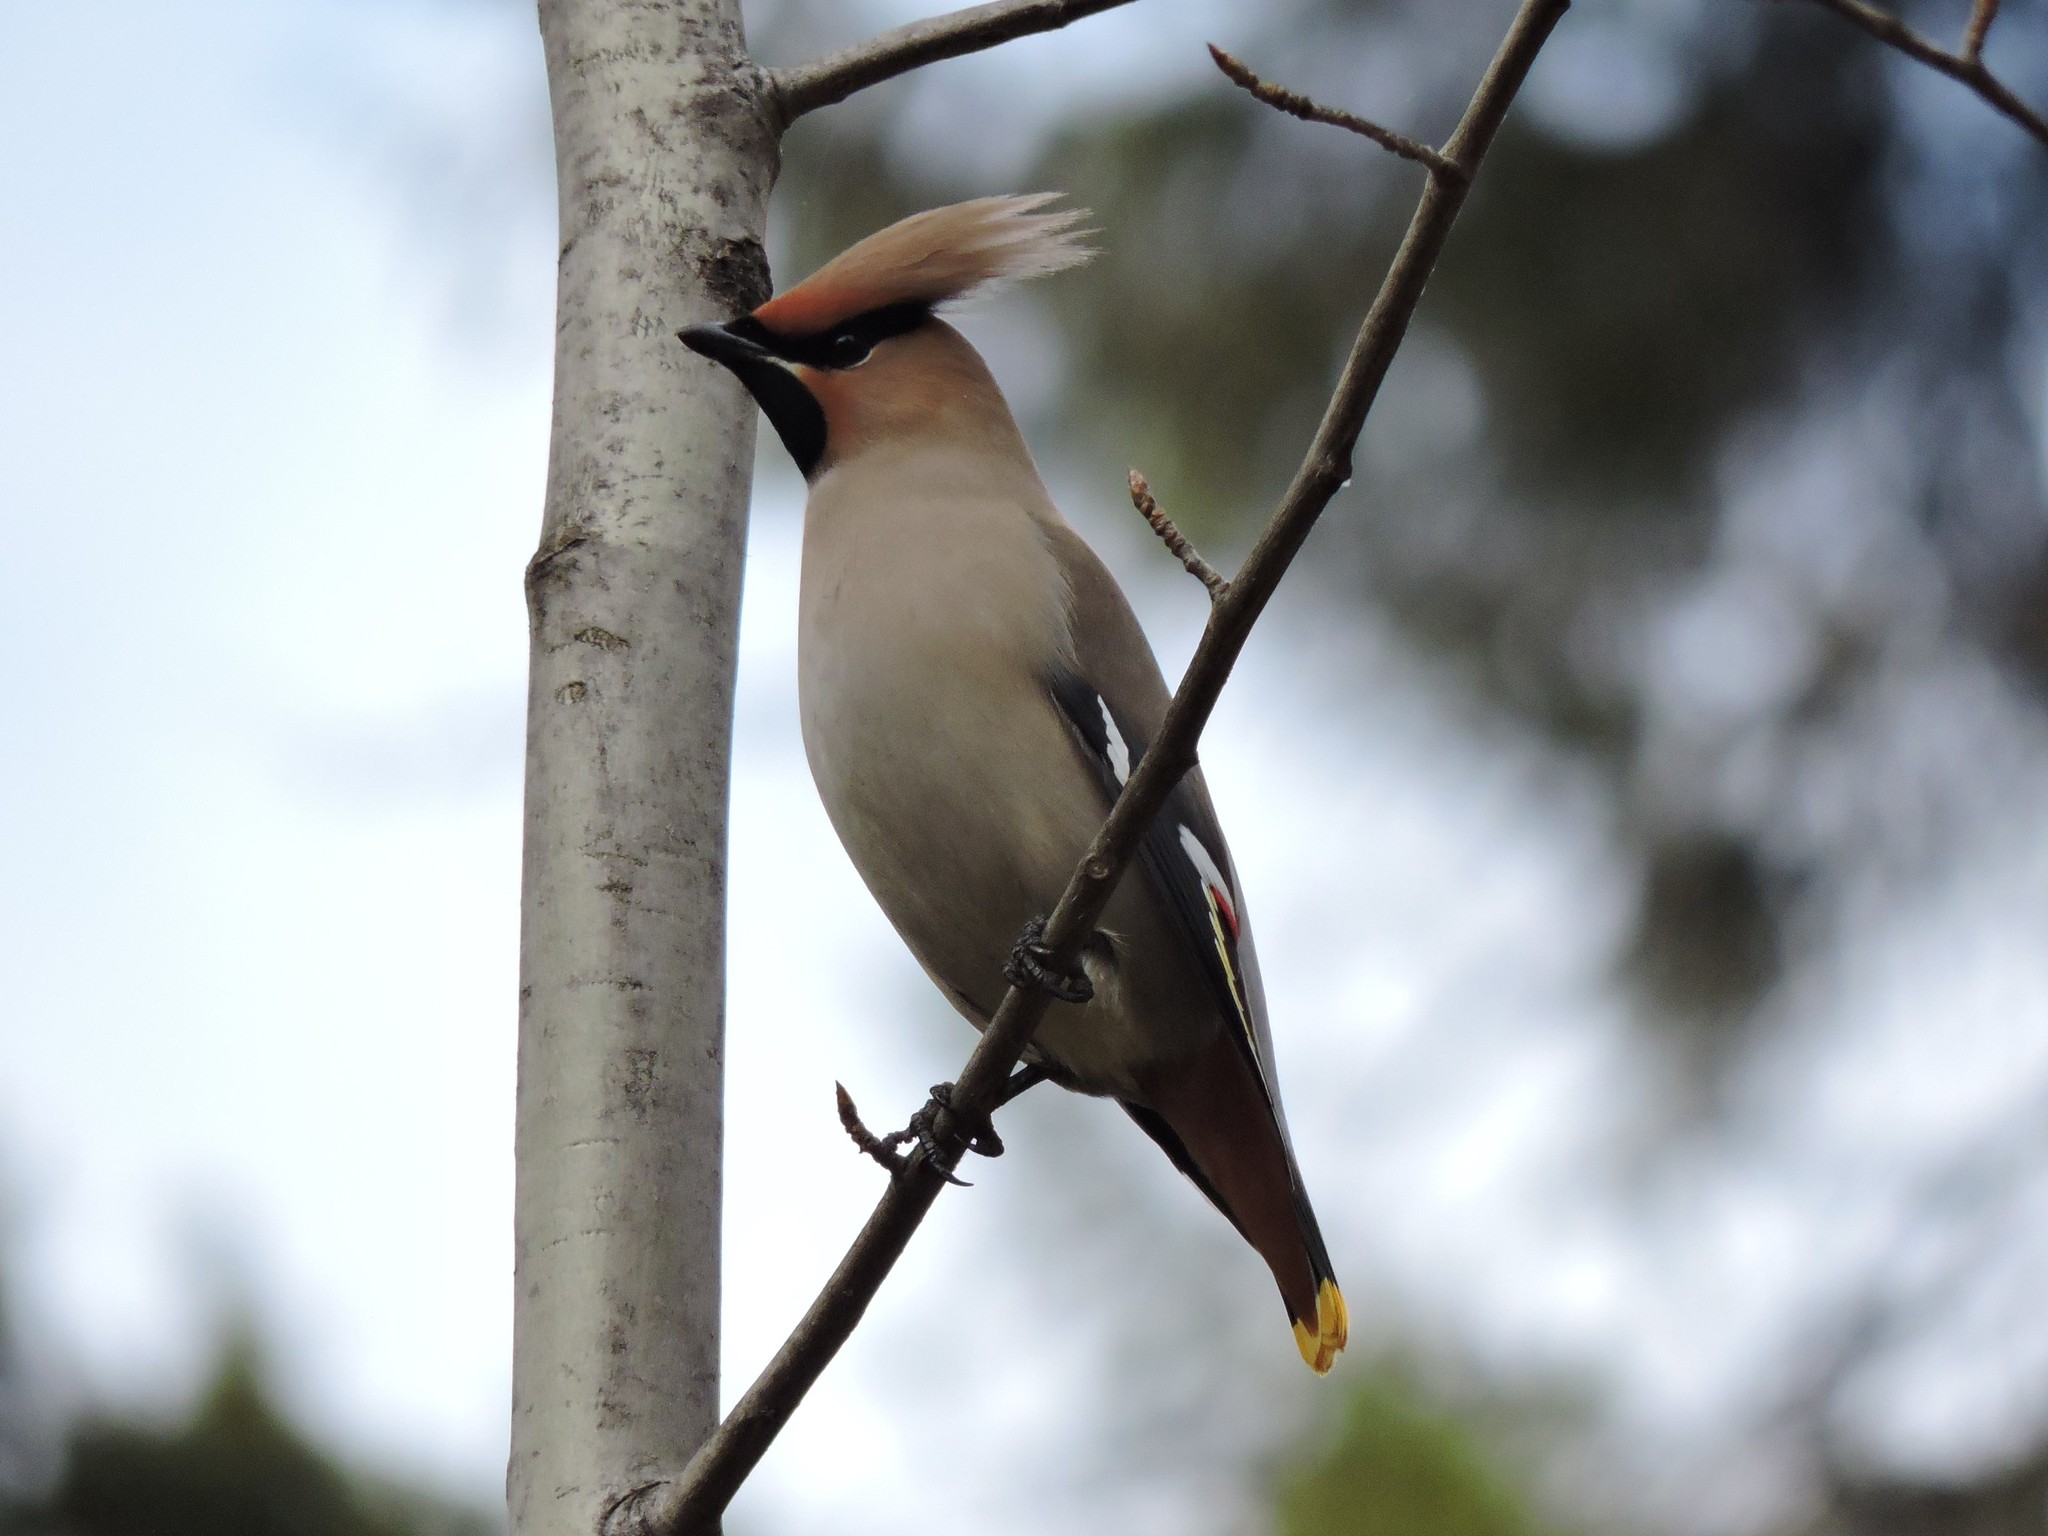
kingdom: Animalia
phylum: Chordata
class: Aves
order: Passeriformes
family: Bombycillidae
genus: Bombycilla
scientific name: Bombycilla garrulus
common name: Bohemian waxwing
